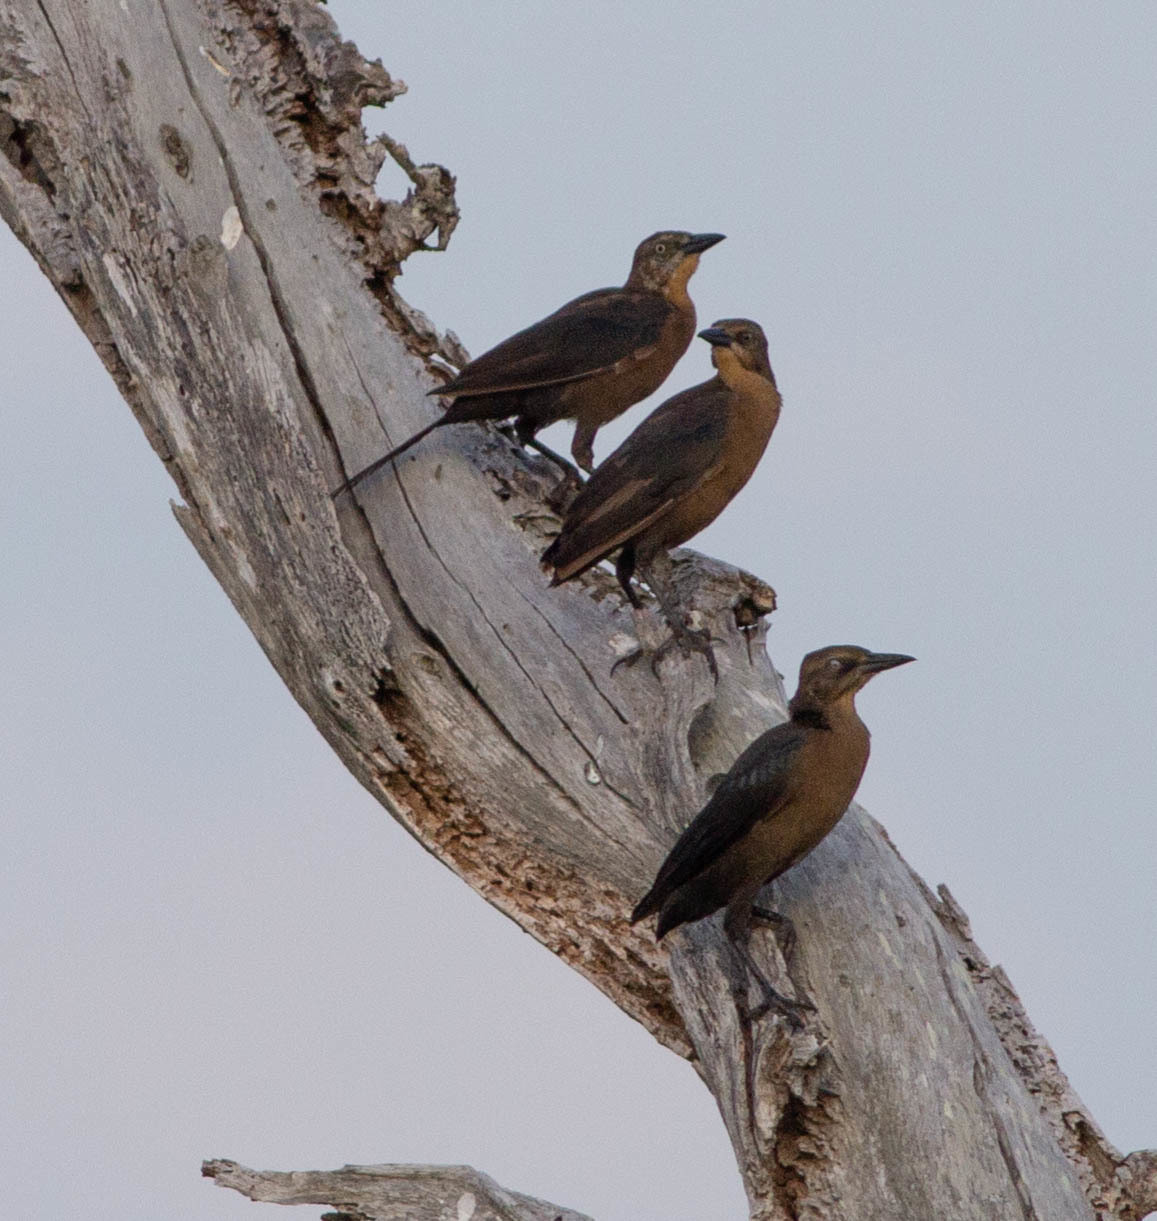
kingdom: Animalia
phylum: Chordata
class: Aves
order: Passeriformes
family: Icteridae
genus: Quiscalus
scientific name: Quiscalus mexicanus
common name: Great-tailed grackle
